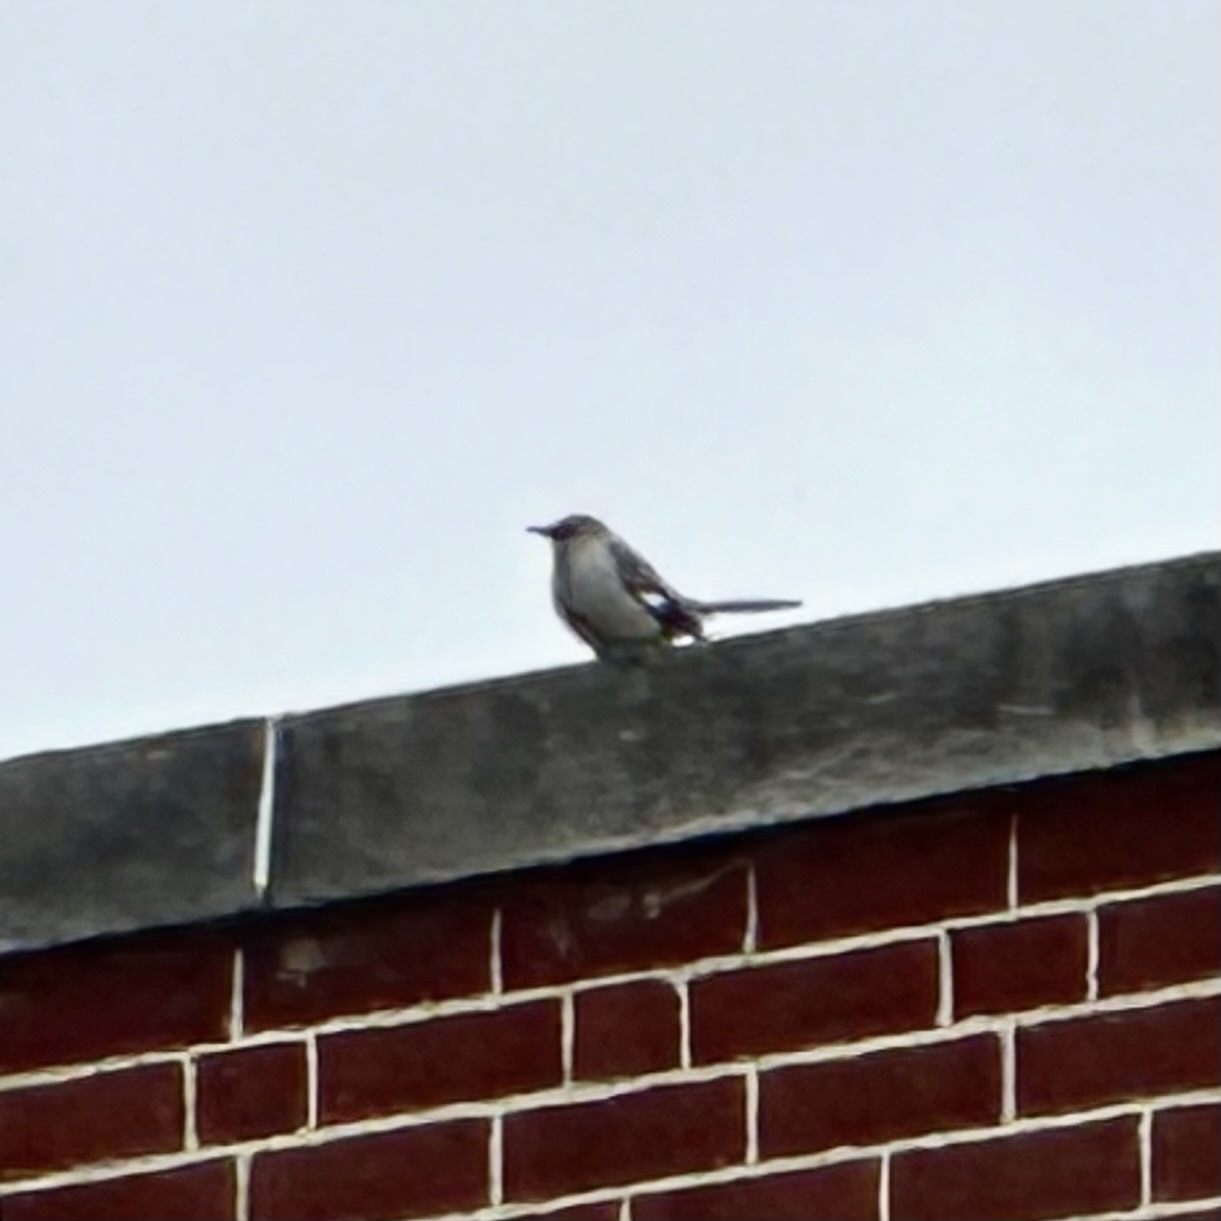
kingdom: Animalia
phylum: Chordata
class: Aves
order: Passeriformes
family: Mimidae
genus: Mimus
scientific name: Mimus polyglottos
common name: Northern mockingbird
